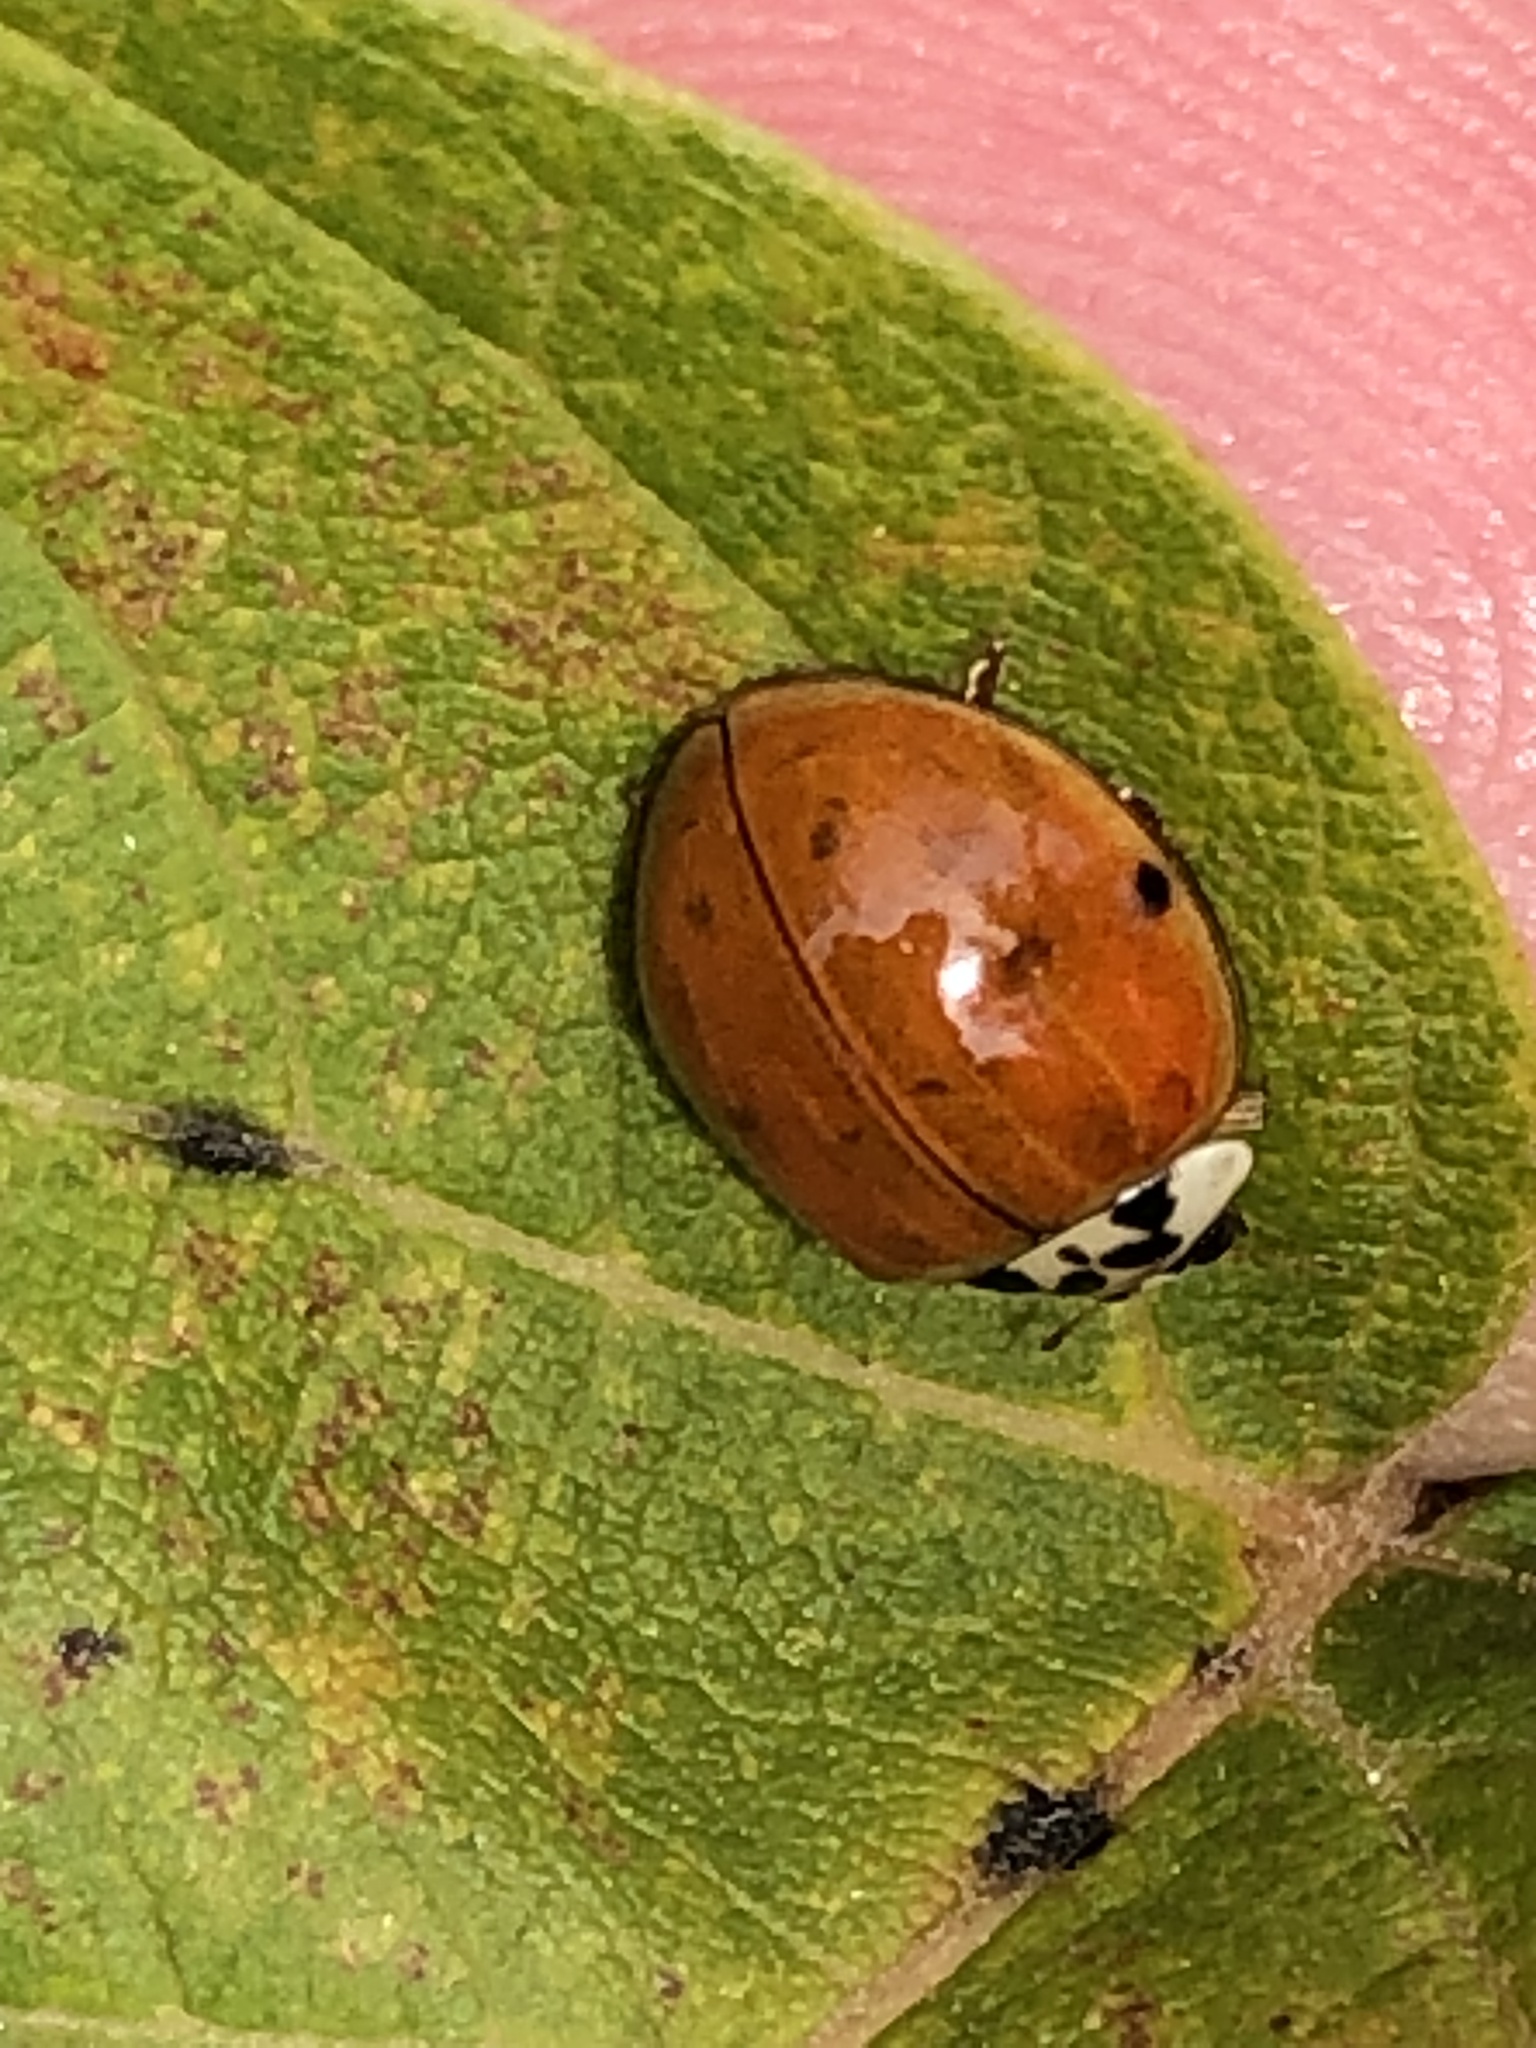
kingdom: Animalia
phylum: Arthropoda
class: Insecta
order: Coleoptera
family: Coccinellidae
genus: Harmonia
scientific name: Harmonia axyridis
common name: Harlequin ladybird
